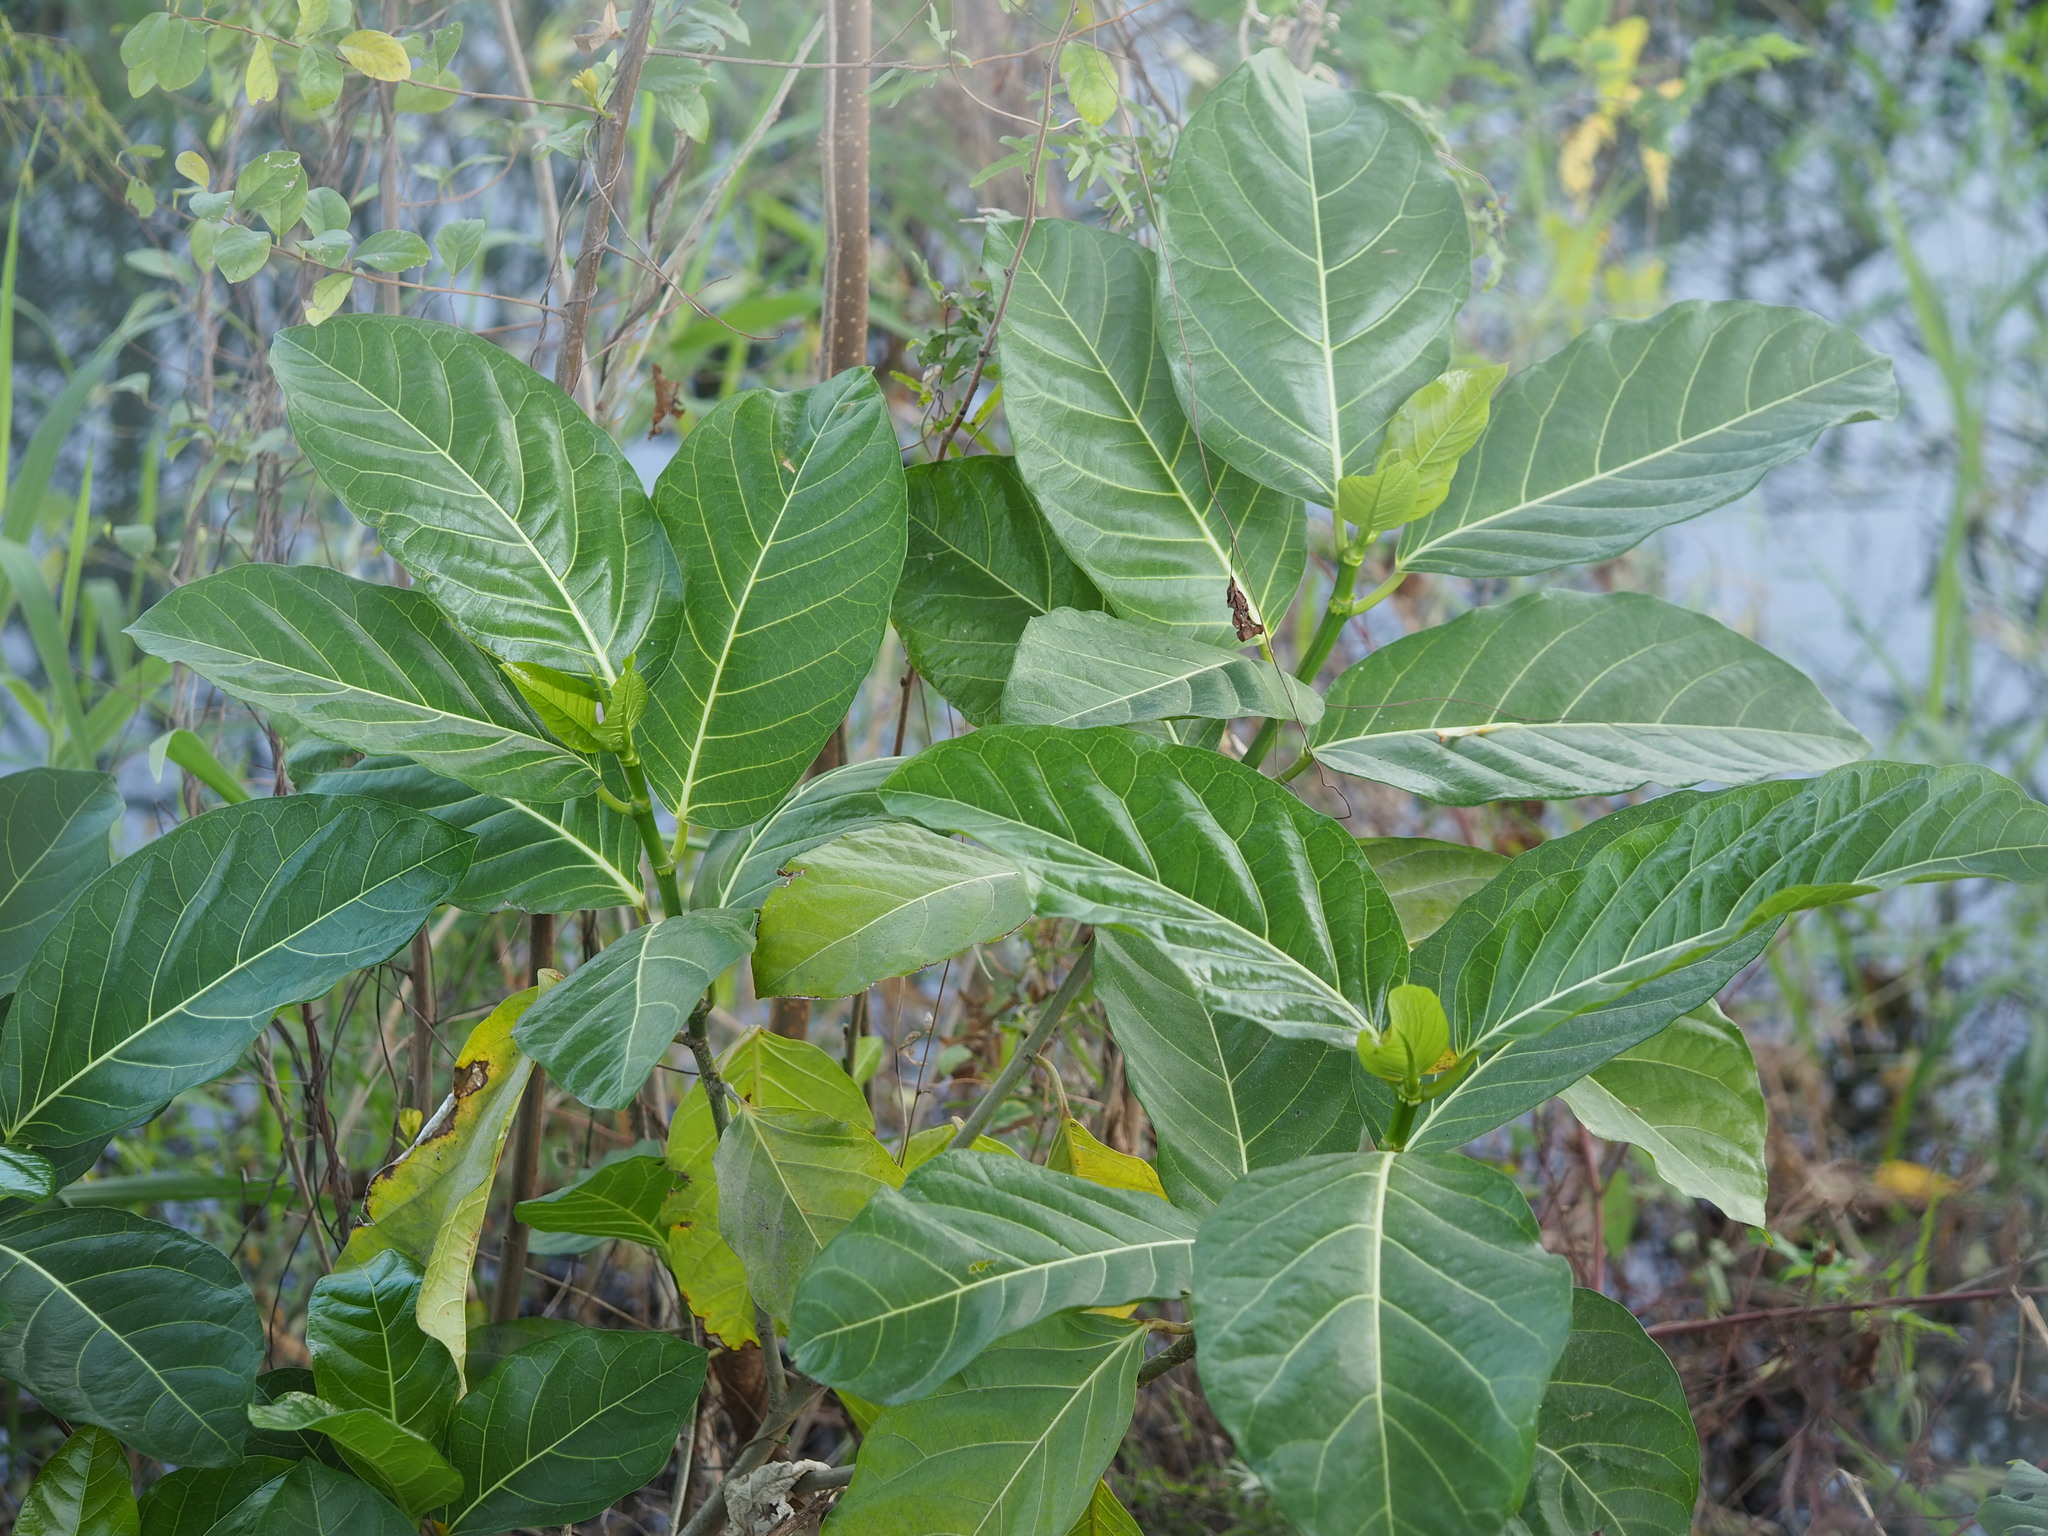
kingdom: Plantae
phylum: Tracheophyta
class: Magnoliopsida
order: Rosales
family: Moraceae
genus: Ficus
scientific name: Ficus septica
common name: Septic fig
